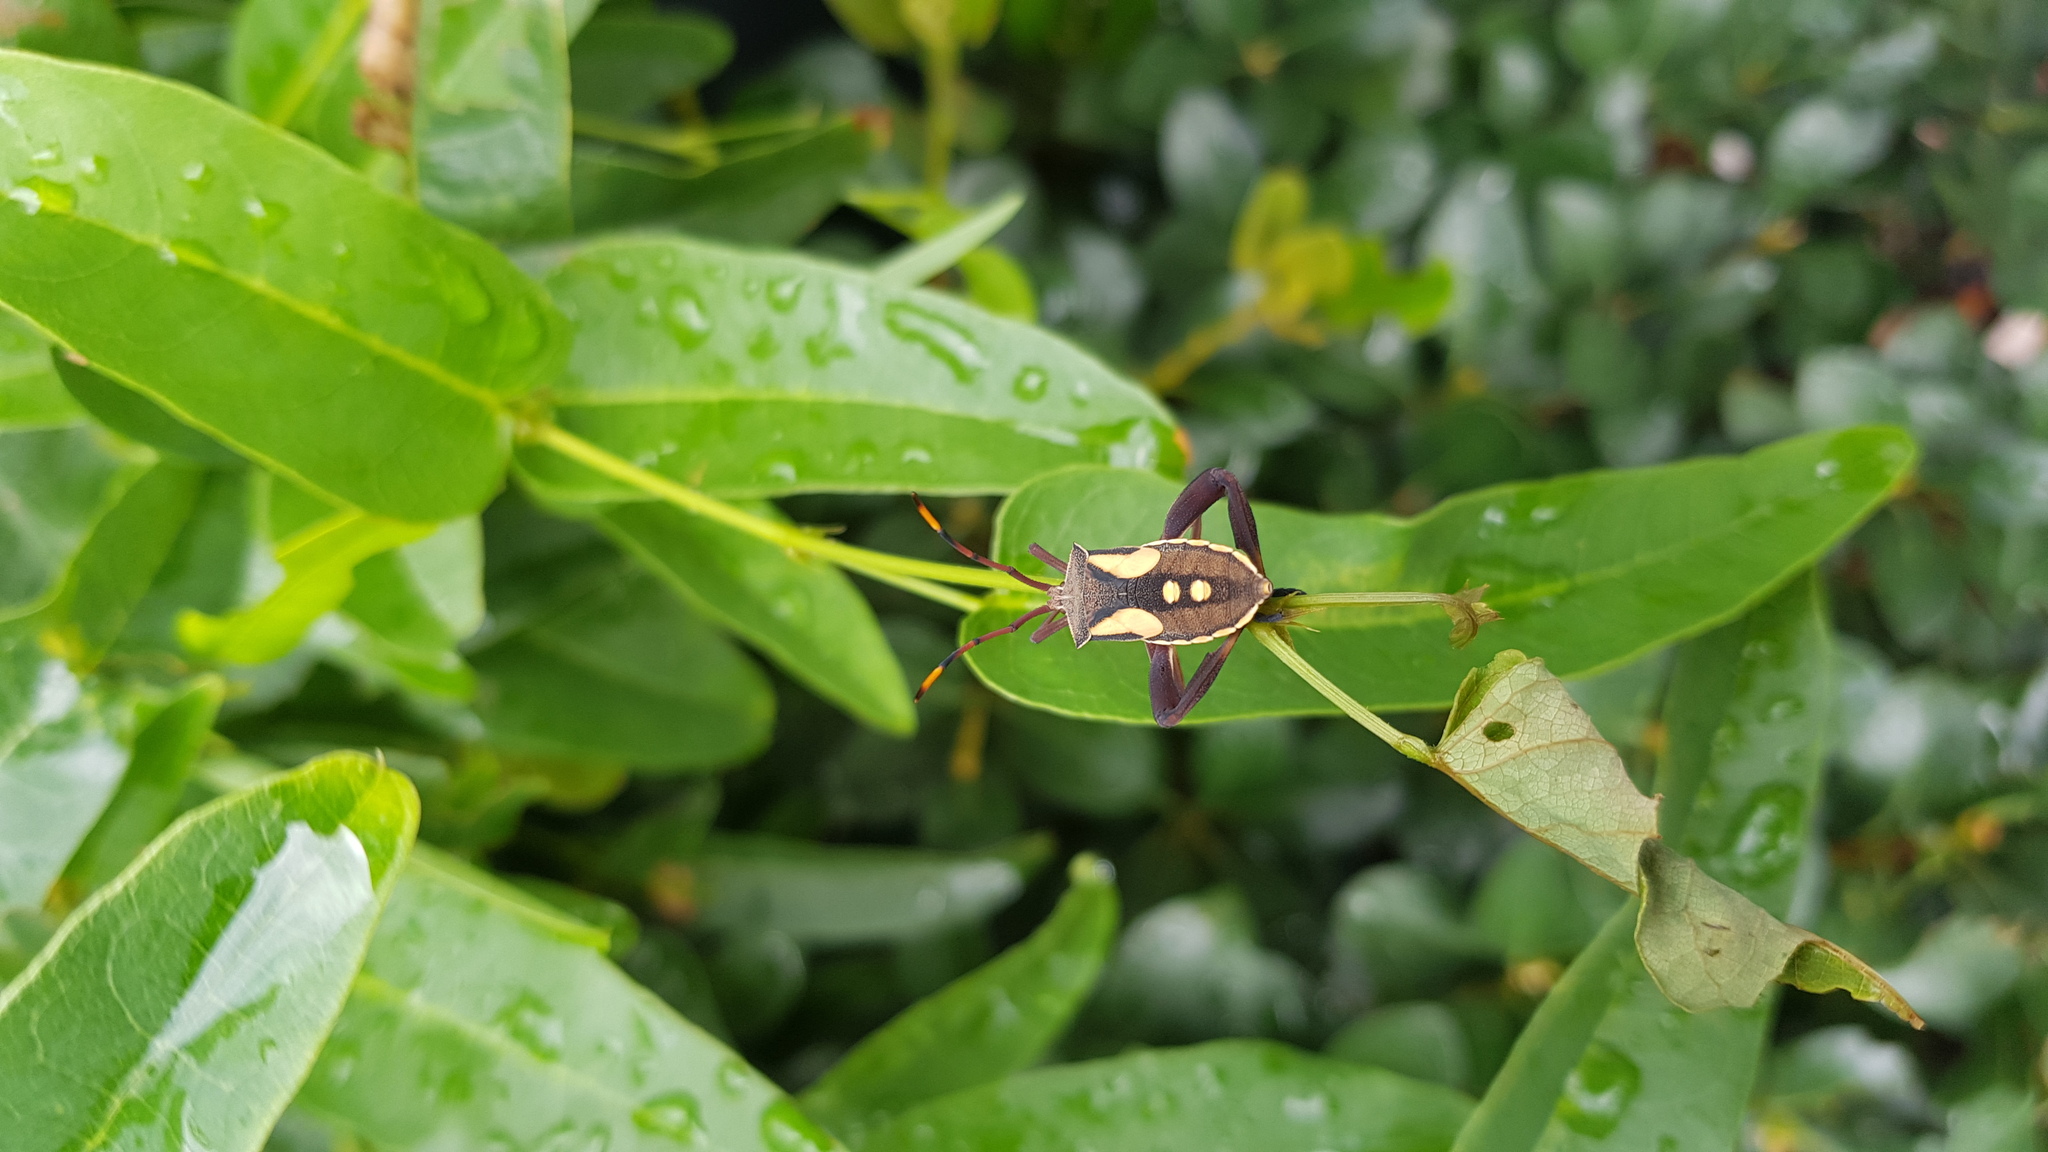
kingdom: Animalia
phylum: Arthropoda
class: Insecta
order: Hemiptera
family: Coreidae
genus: Mictis
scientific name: Mictis profana
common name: Crusader bug
